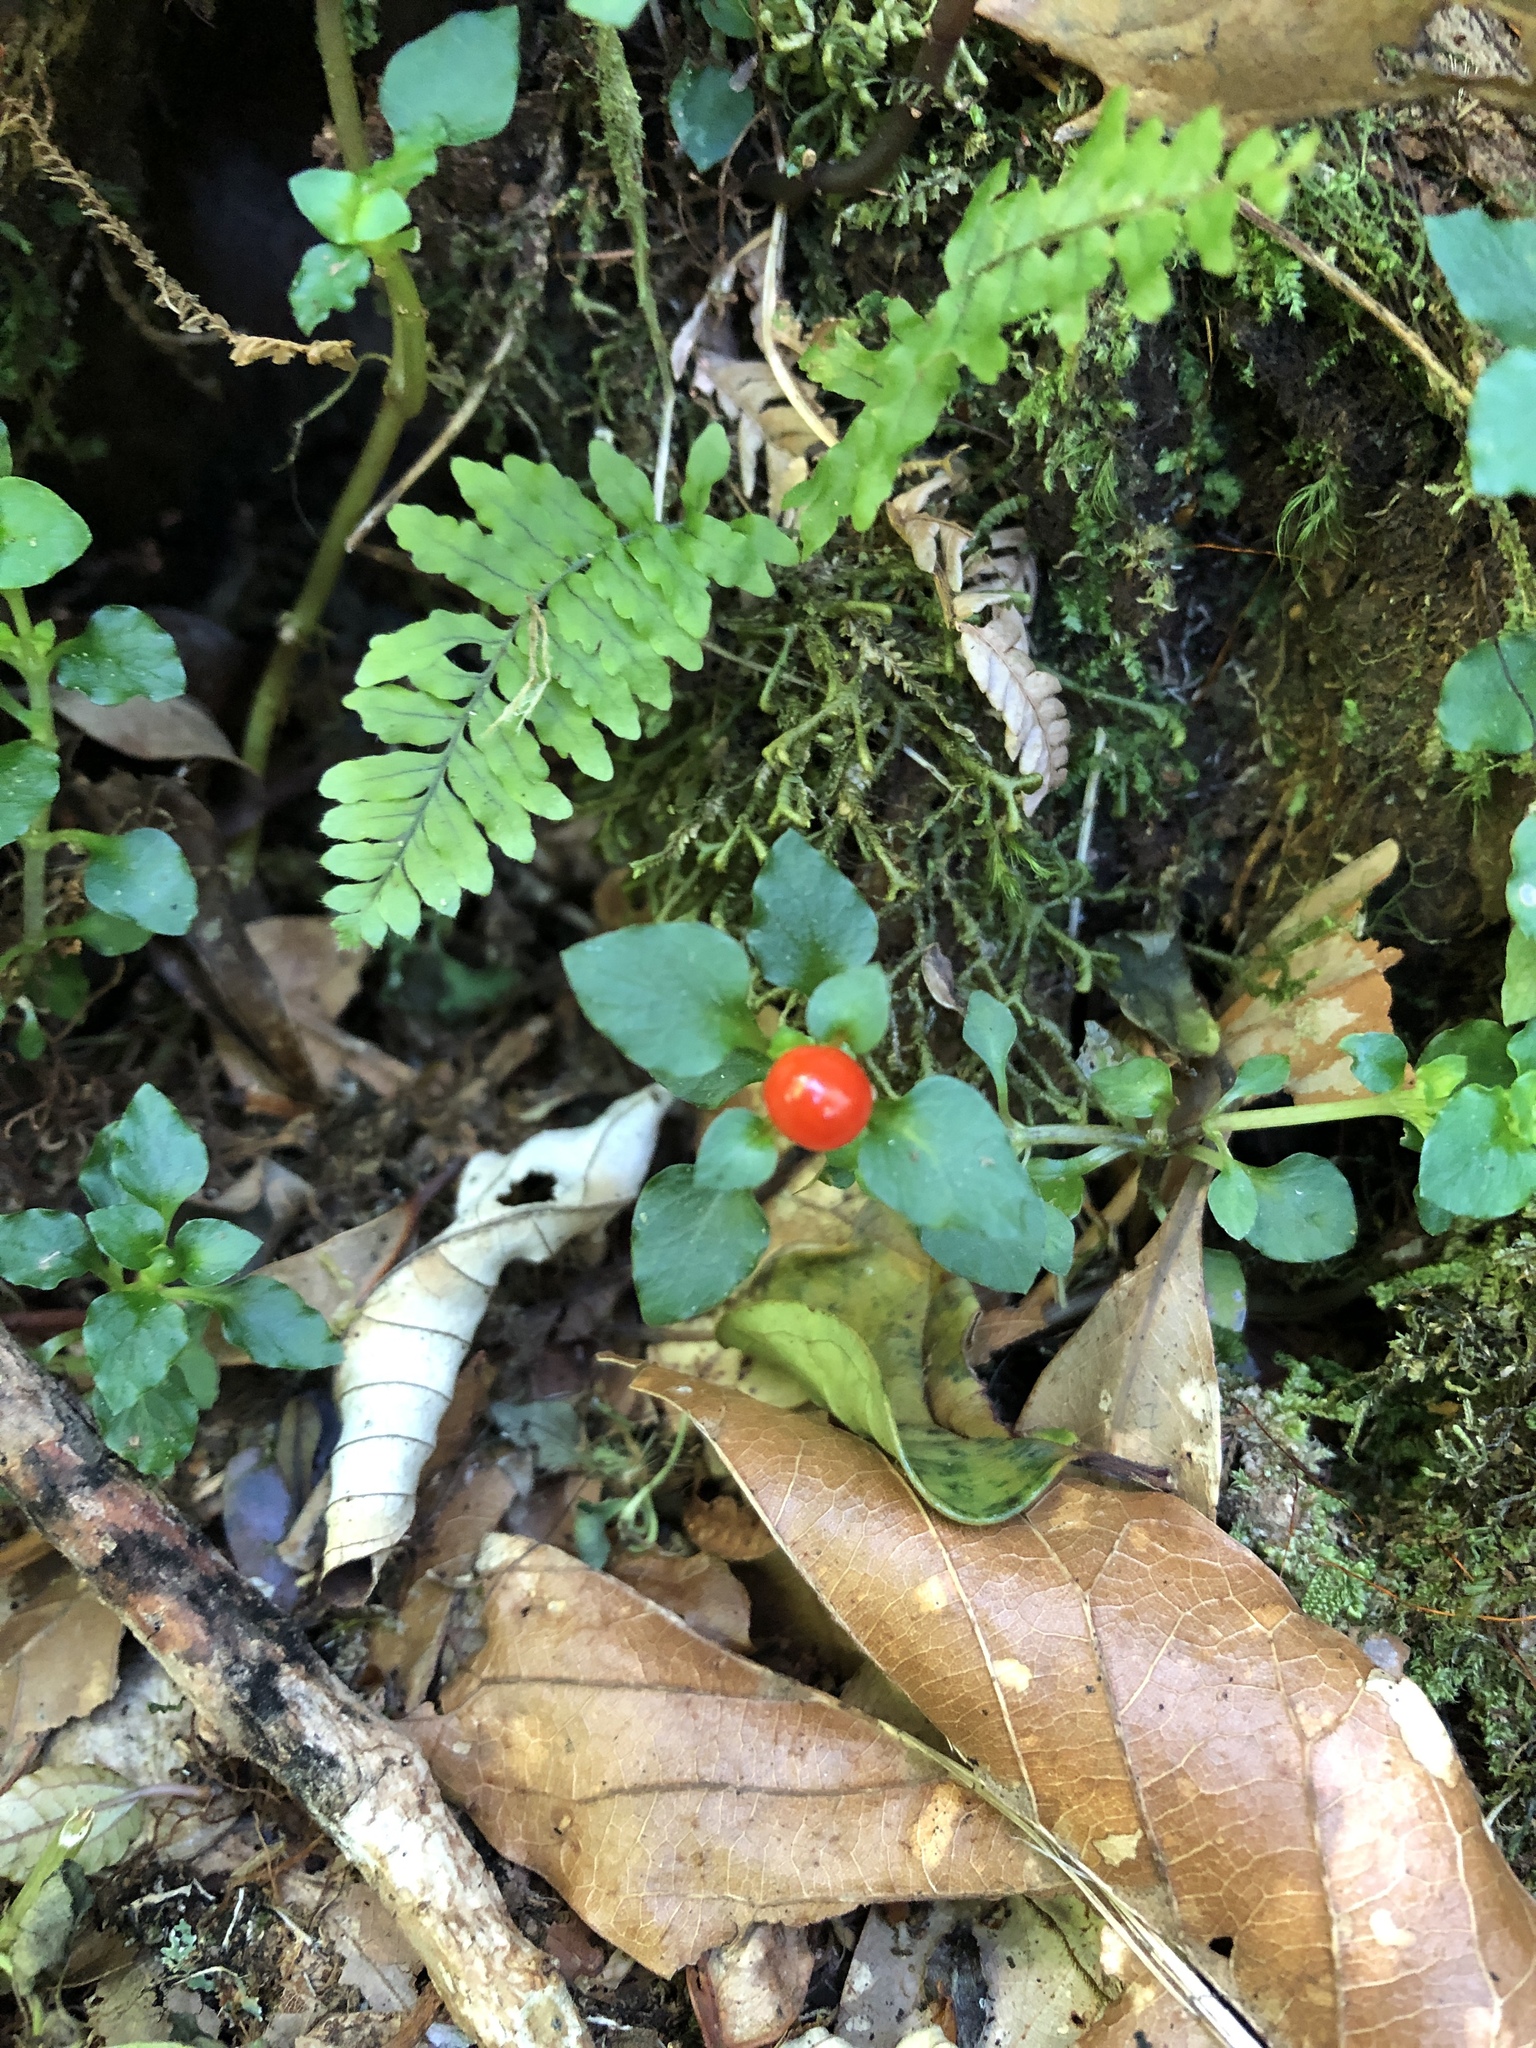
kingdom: Plantae
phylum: Tracheophyta
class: Magnoliopsida
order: Gentianales
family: Rubiaceae
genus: Nertera
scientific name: Nertera granadensis
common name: Beadplant
